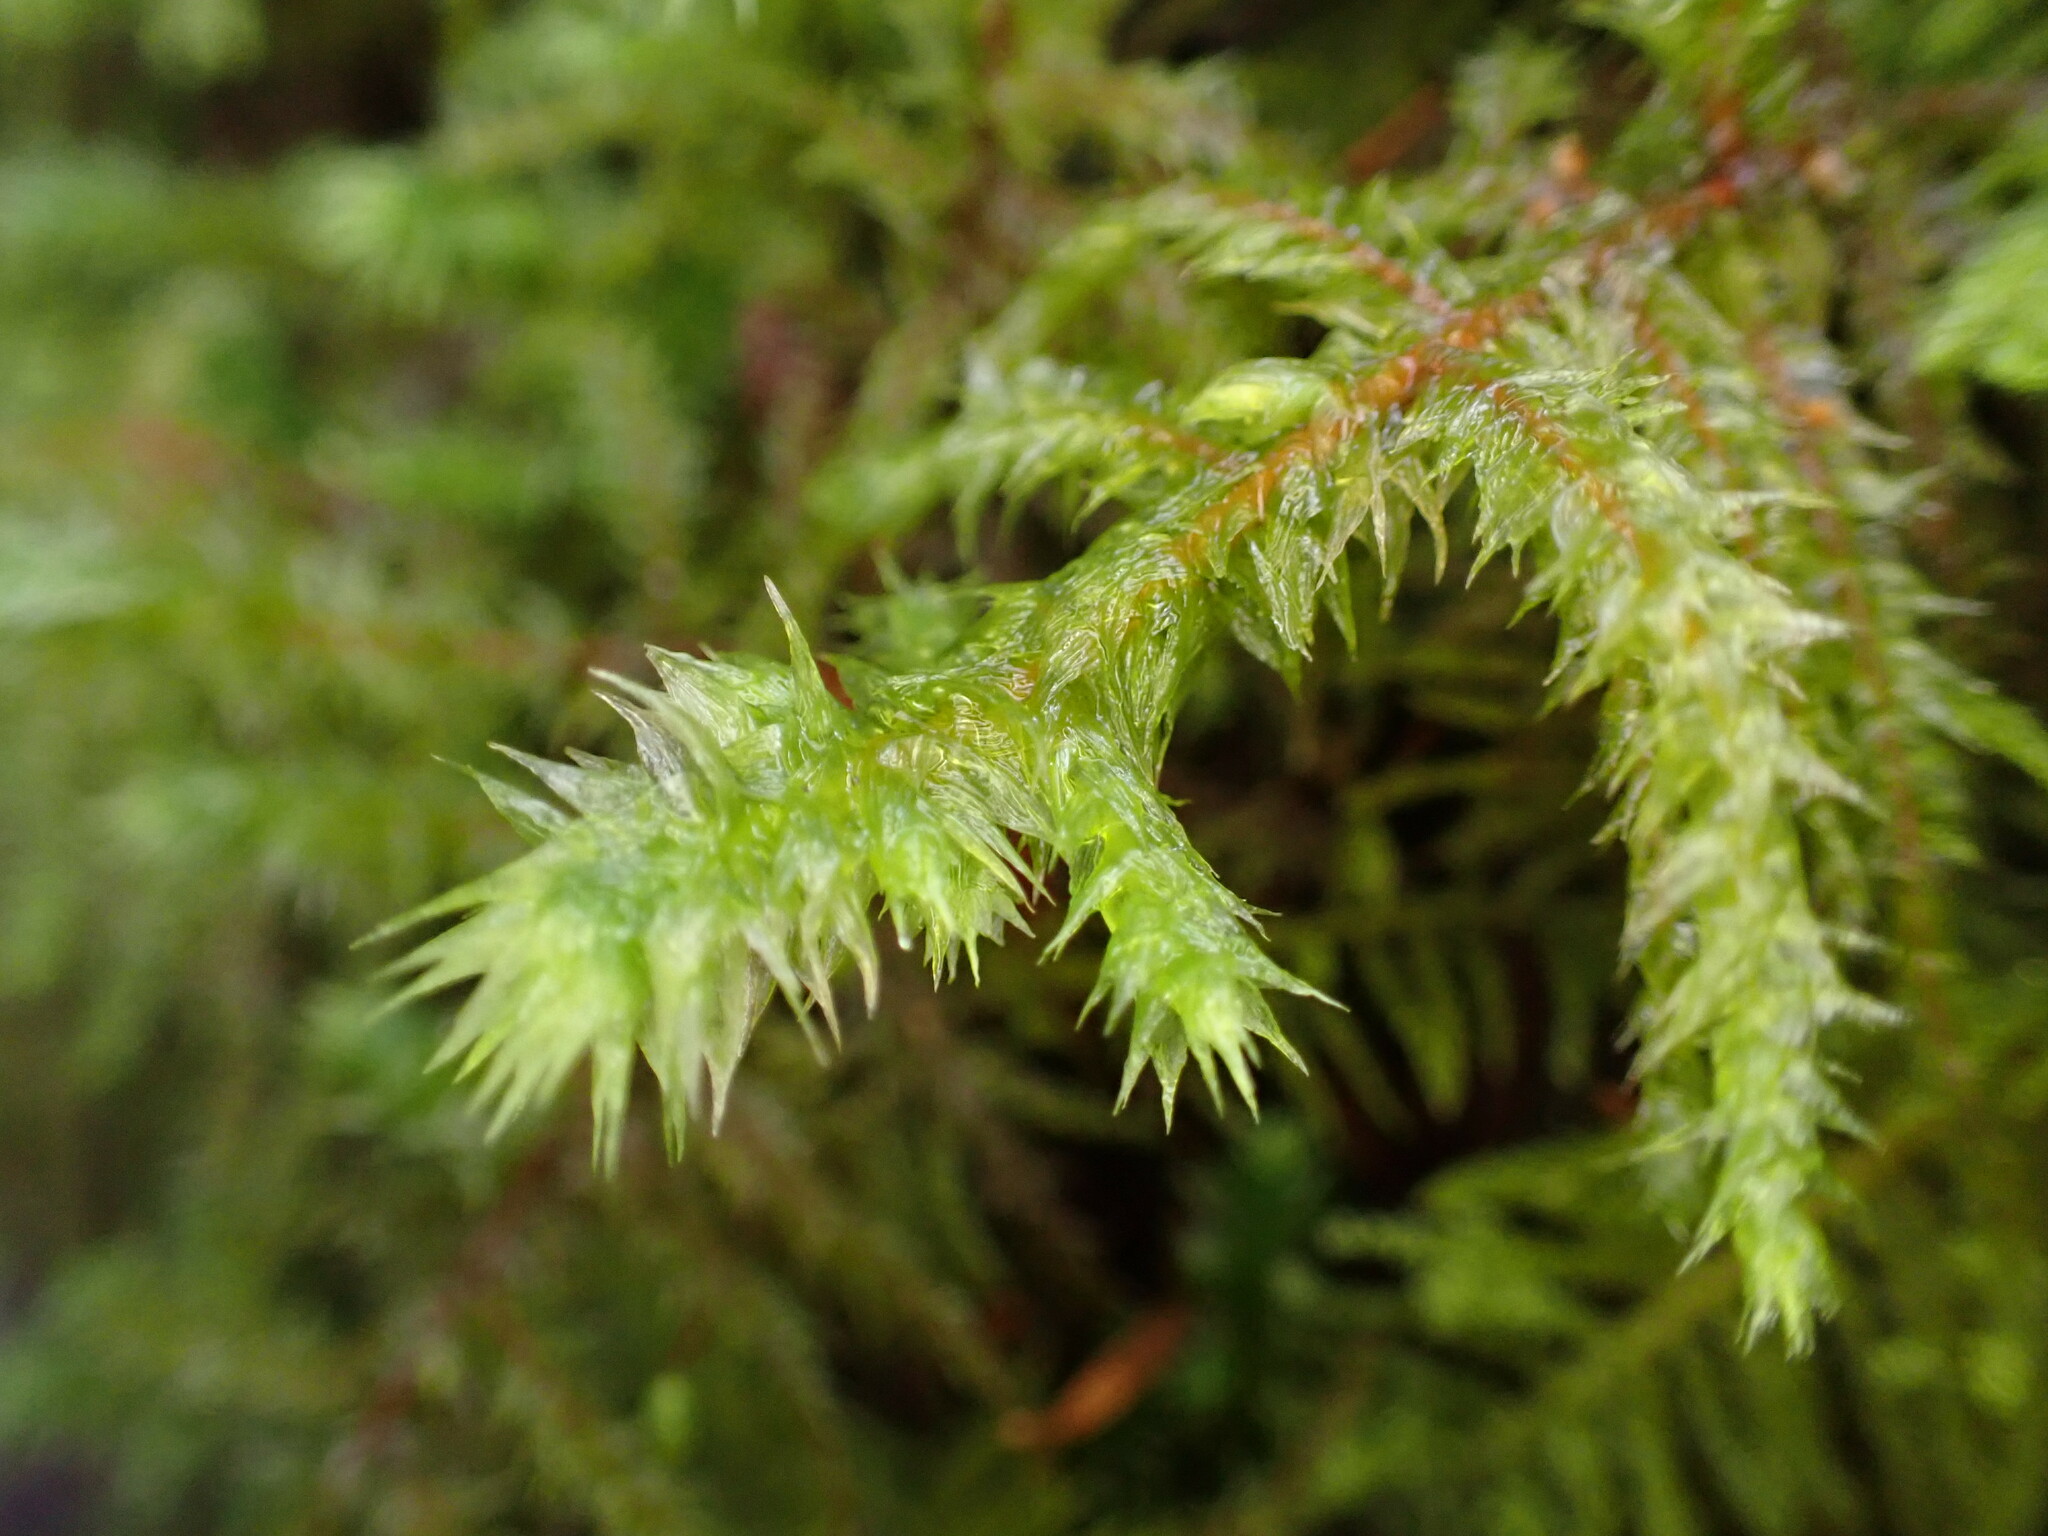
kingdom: Plantae
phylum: Bryophyta
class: Bryopsida
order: Hypnales
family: Hylocomiaceae
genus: Hylocomiadelphus
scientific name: Hylocomiadelphus triquetrus
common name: Rough goose neck moss
